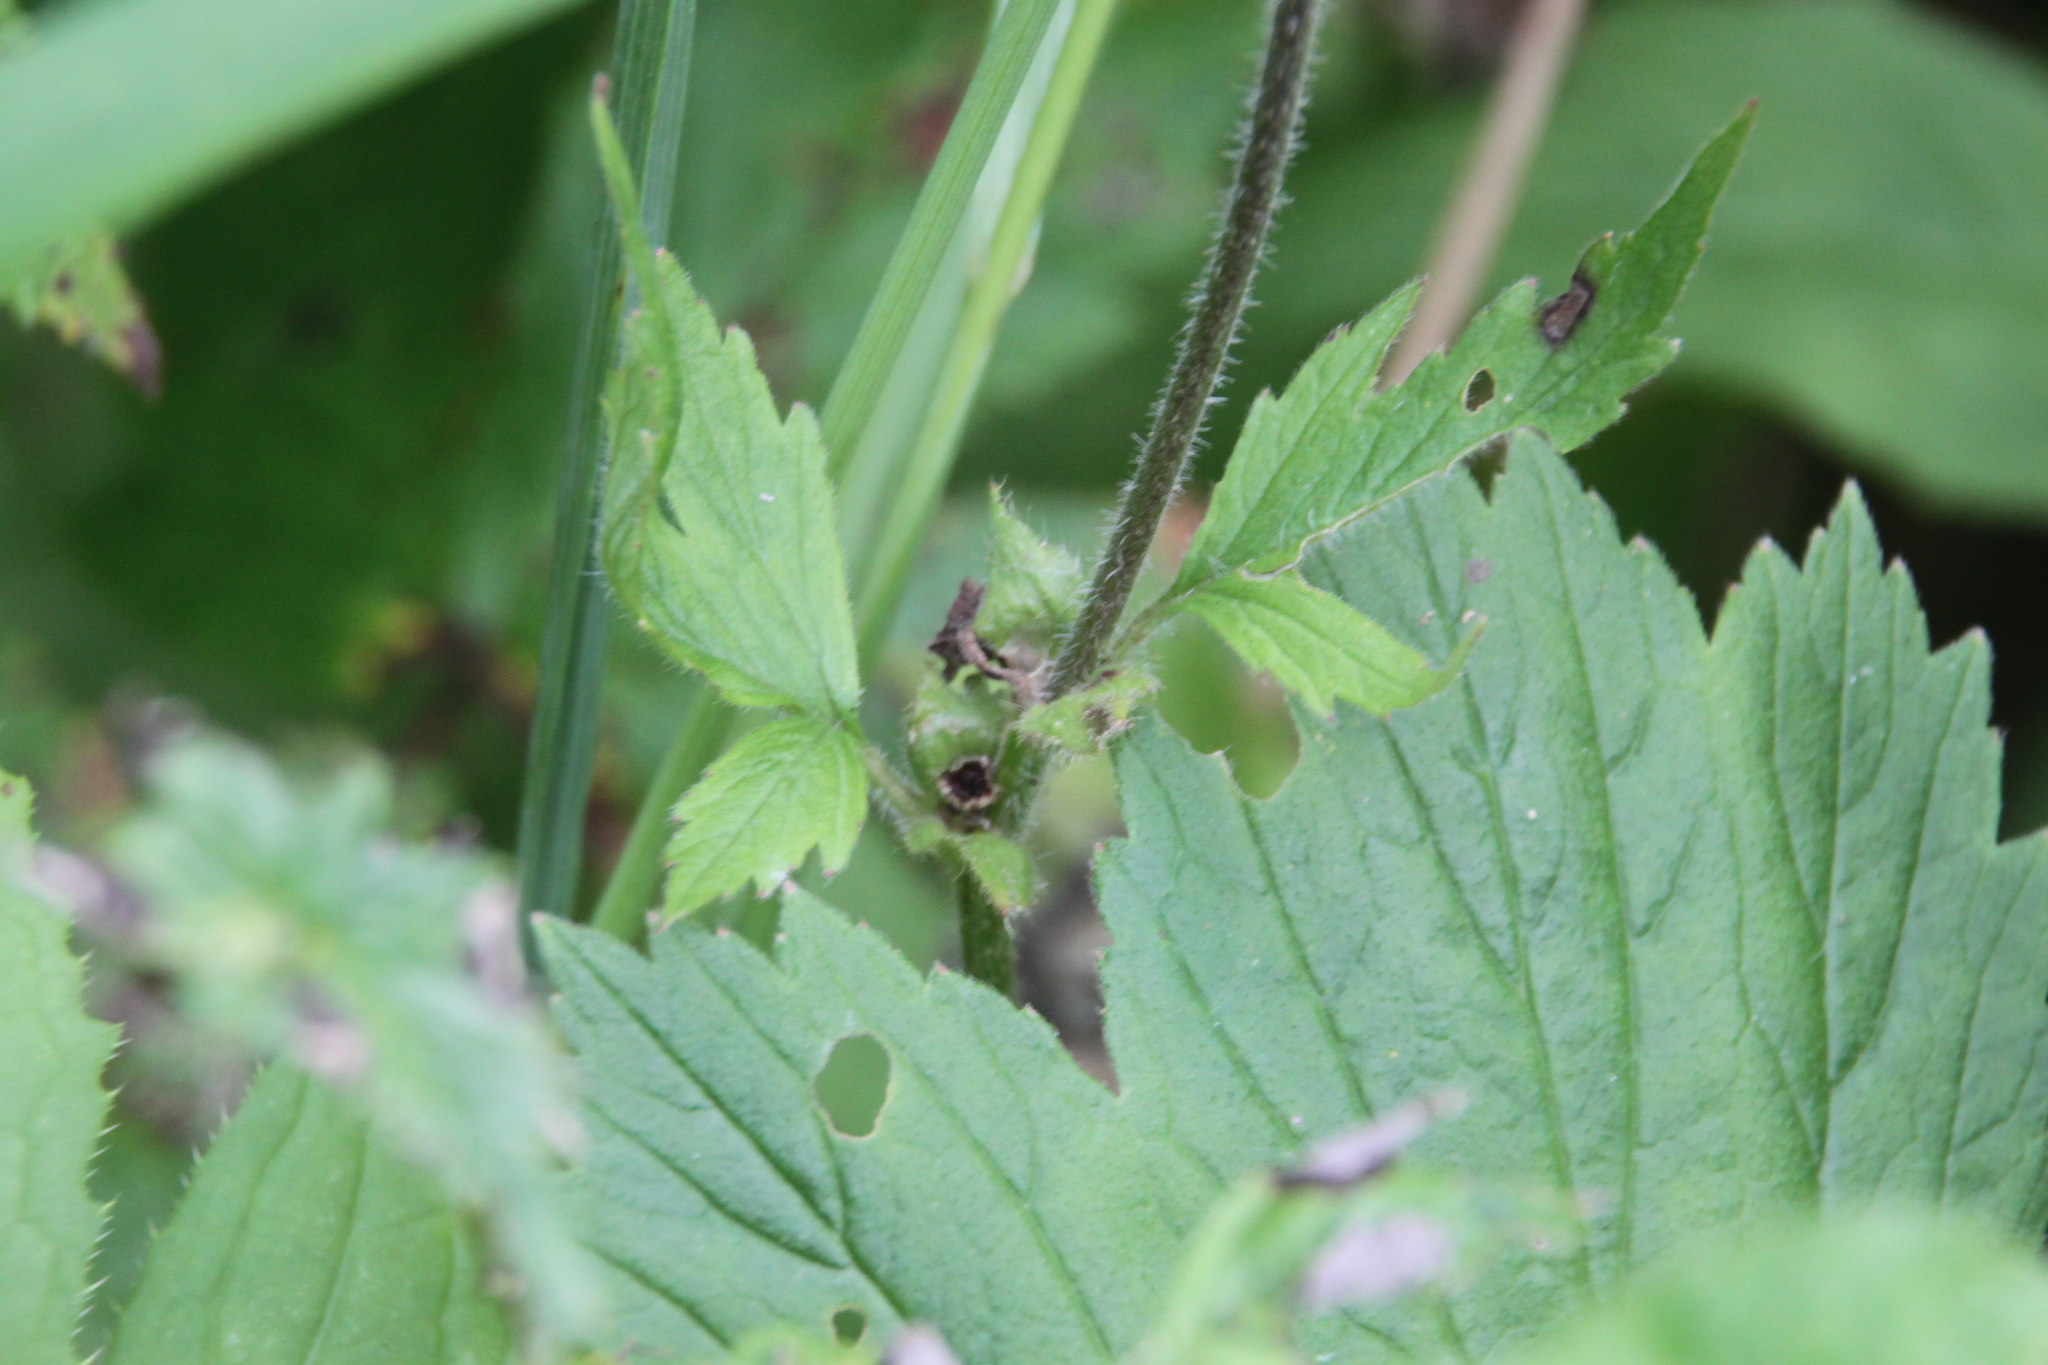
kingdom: Plantae
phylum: Tracheophyta
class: Magnoliopsida
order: Rosales
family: Rosaceae
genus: Geum
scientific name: Geum rivale
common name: Water avens
